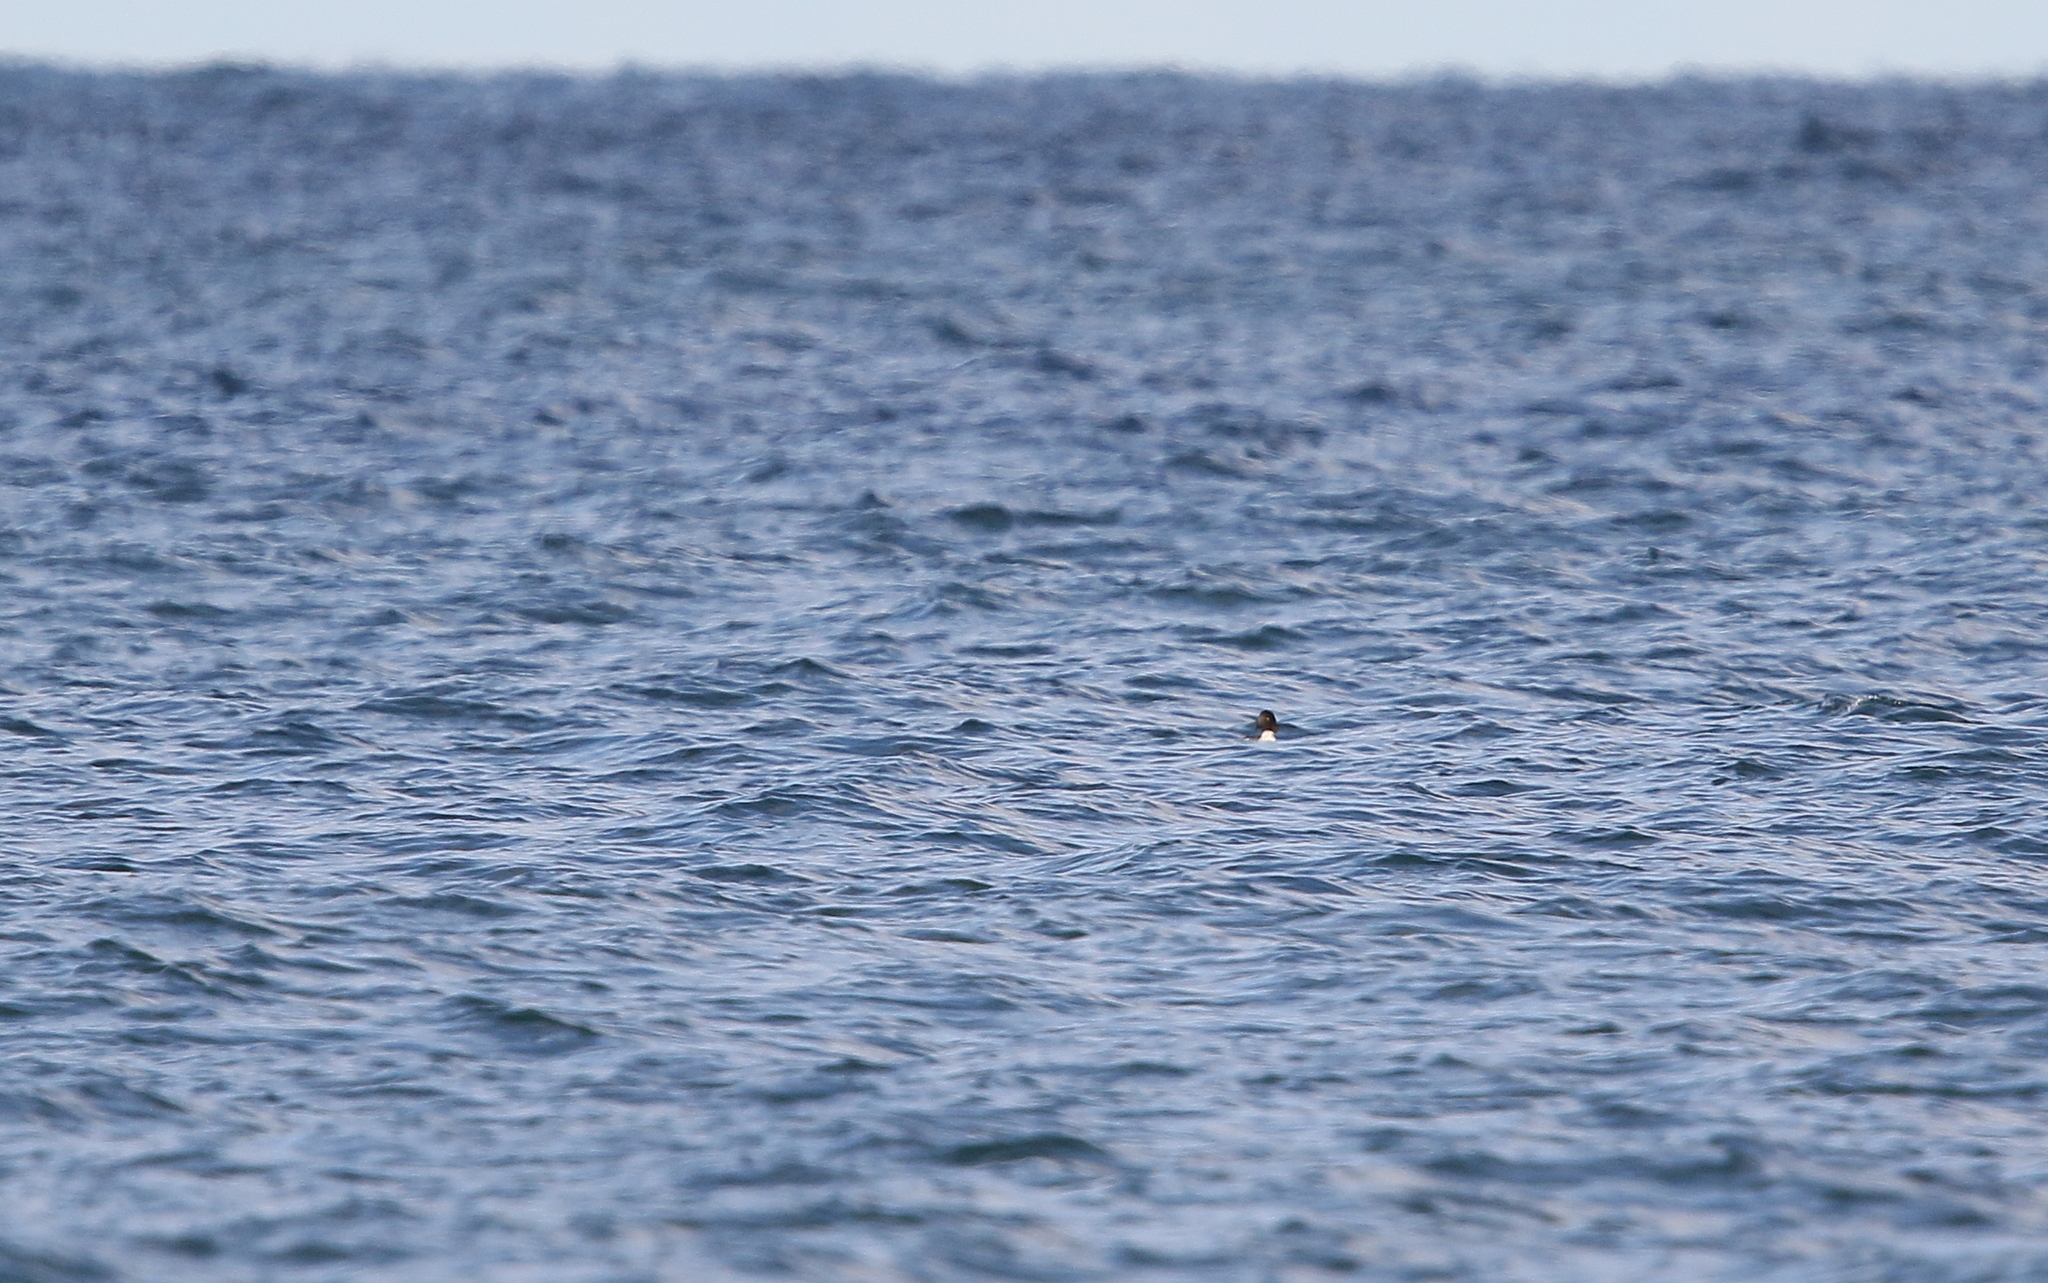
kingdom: Animalia
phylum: Chordata
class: Aves
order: Anseriformes
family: Anatidae
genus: Bucephala
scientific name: Bucephala clangula
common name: Common goldeneye
